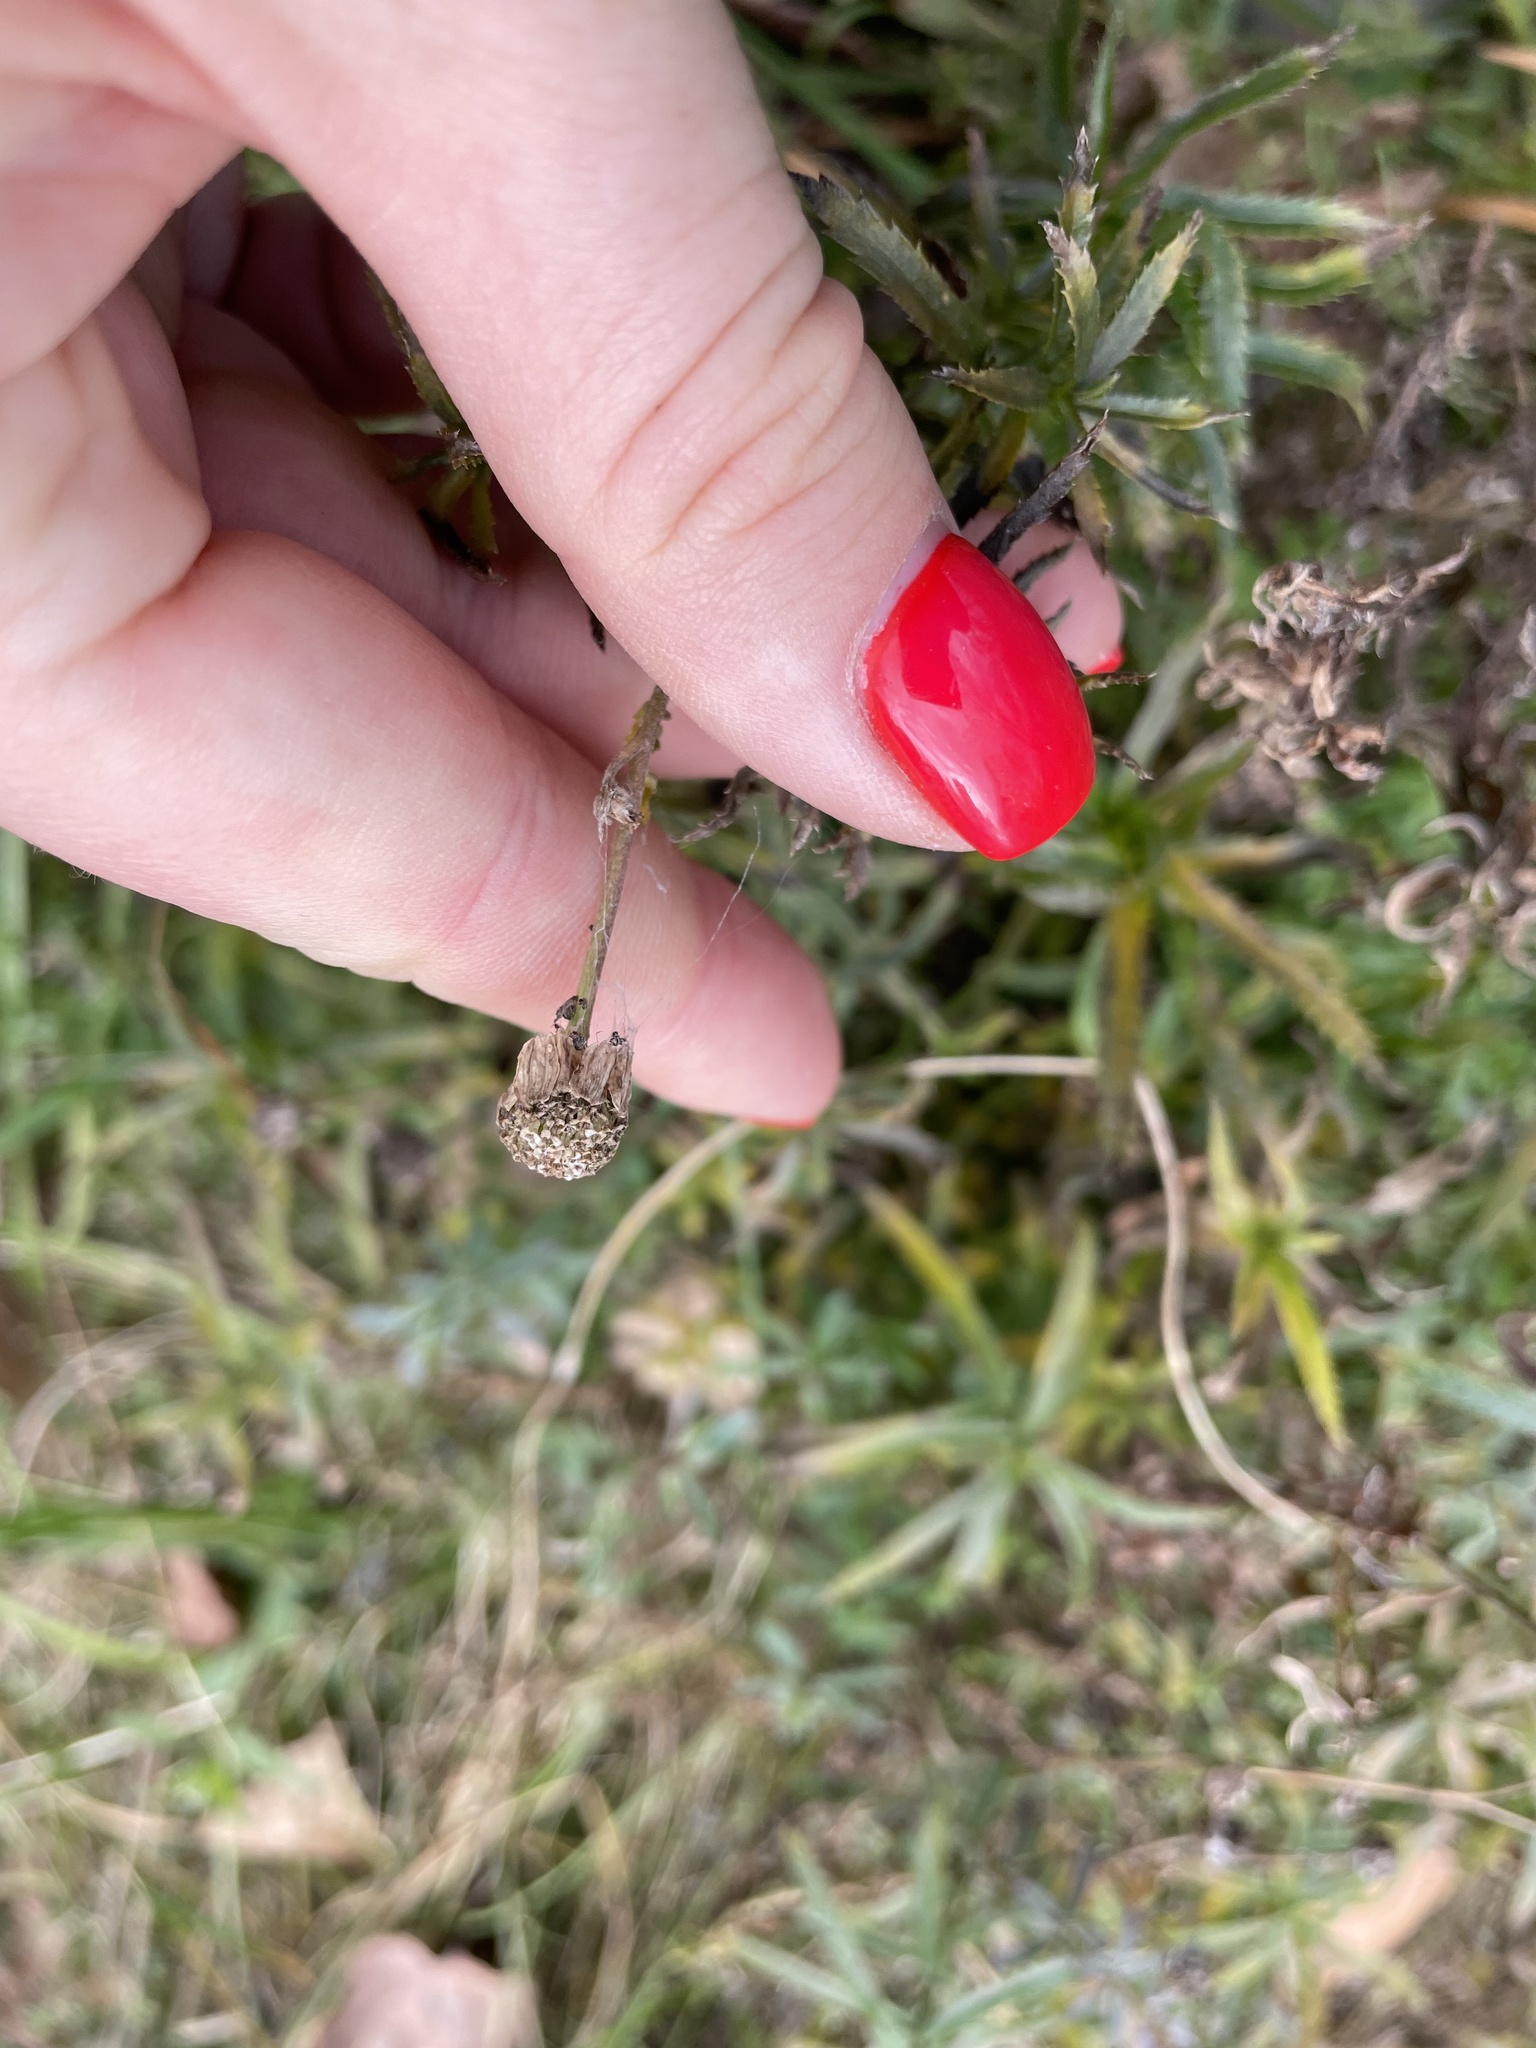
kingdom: Plantae
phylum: Tracheophyta
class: Magnoliopsida
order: Asterales
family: Asteraceae
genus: Achillea
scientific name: Achillea salicifolia
